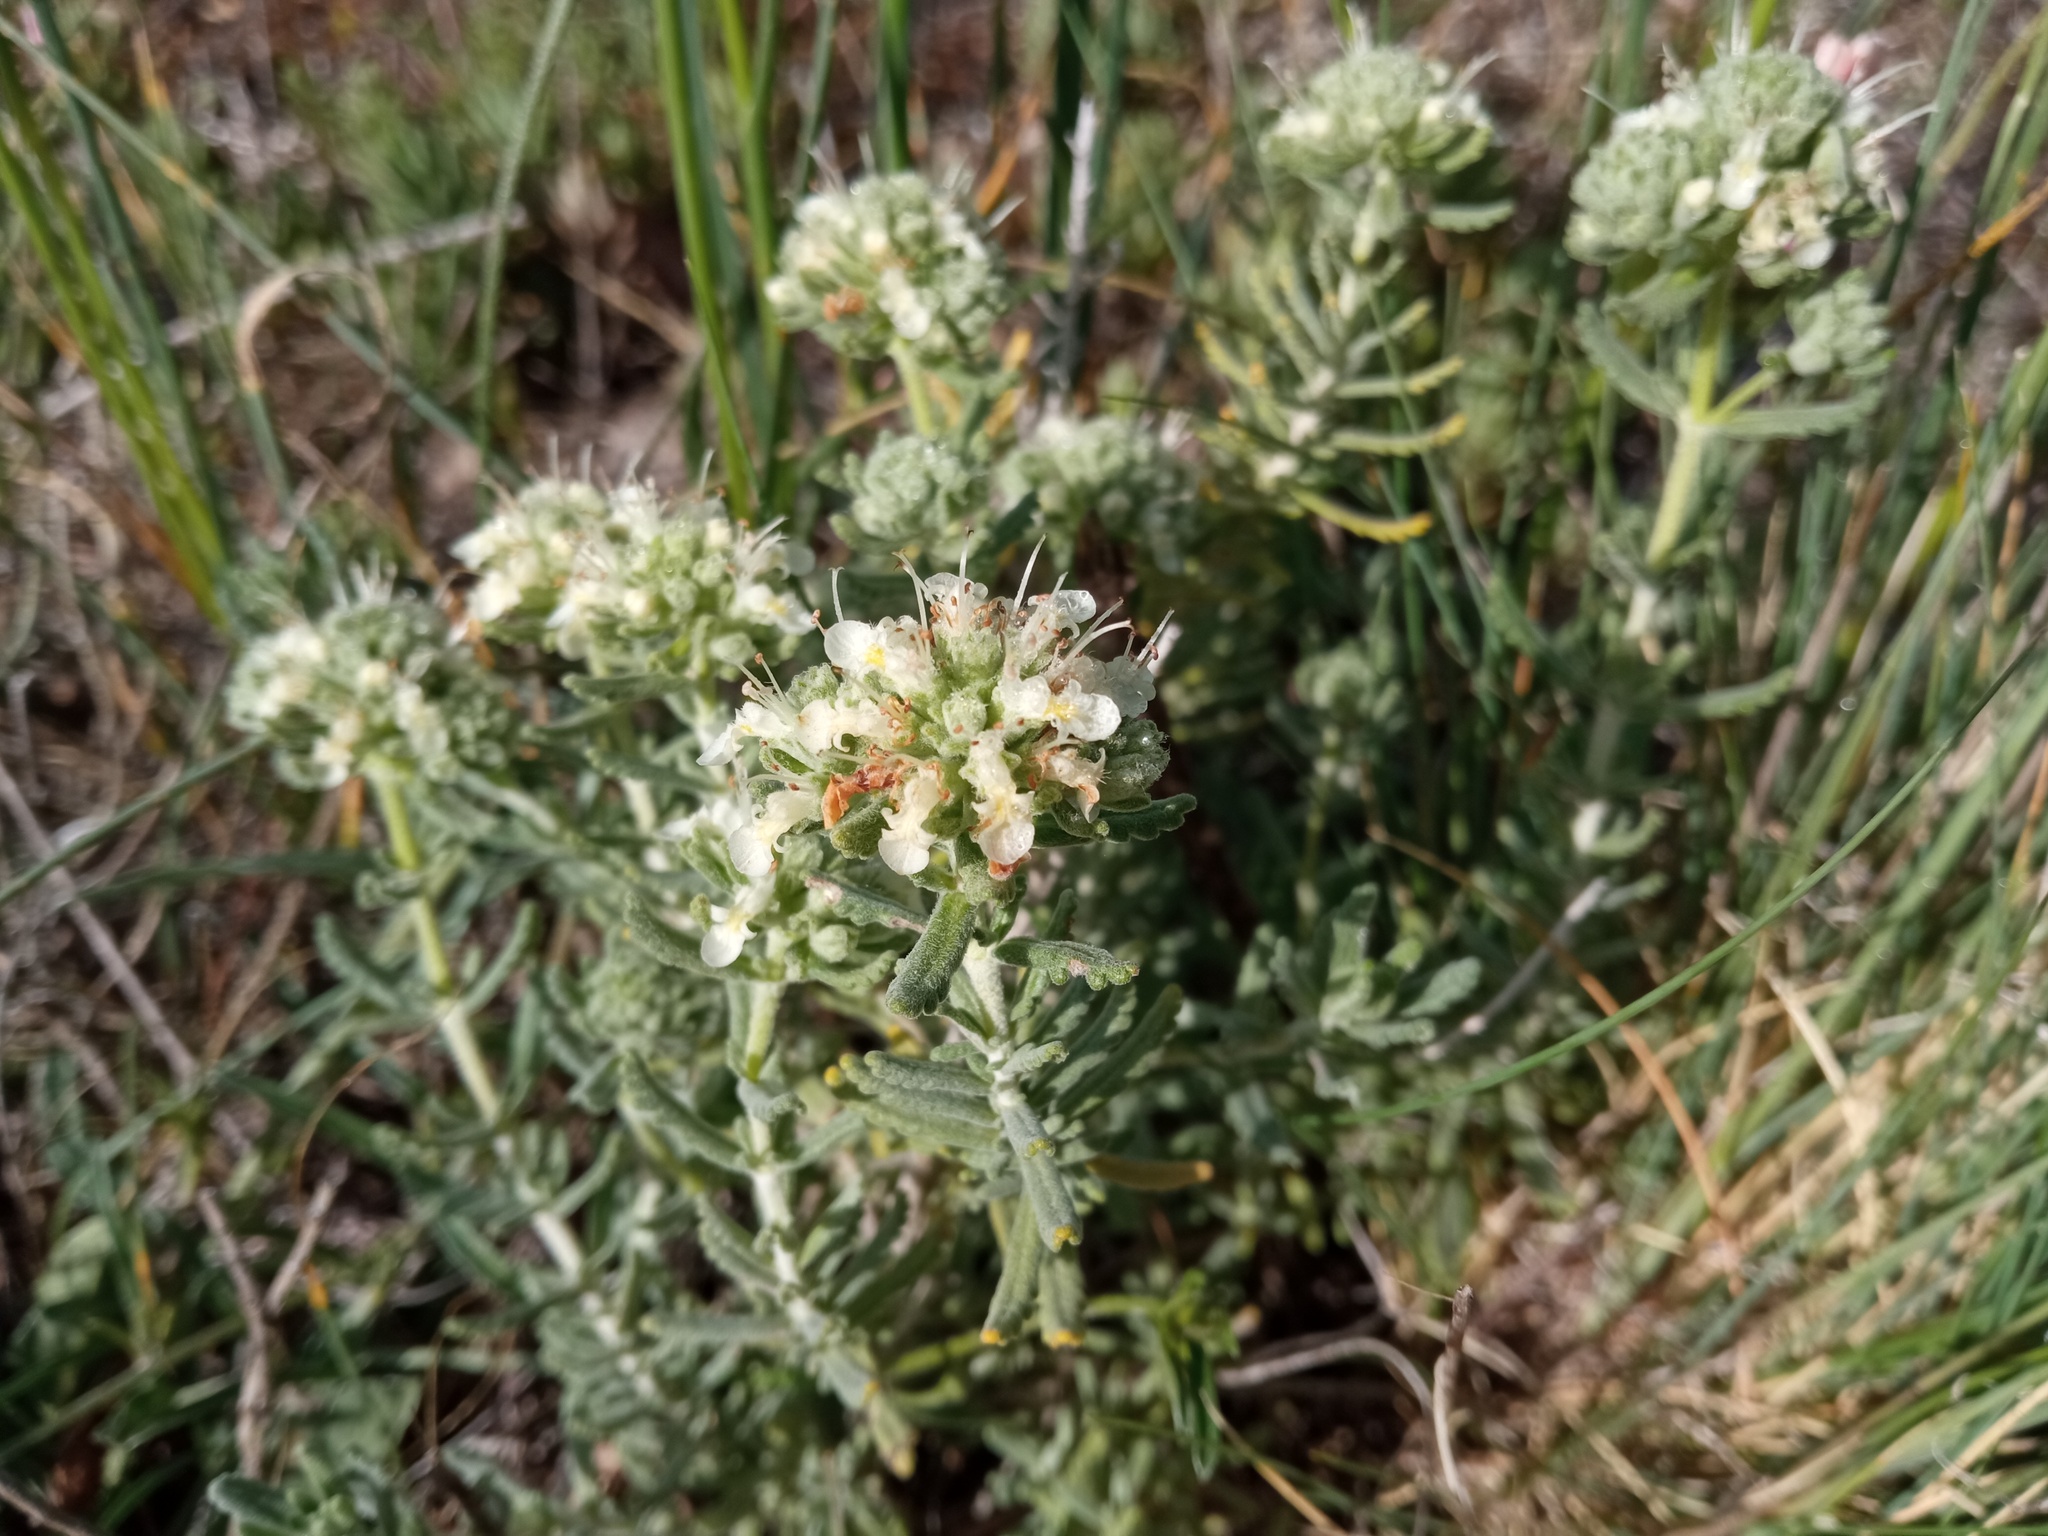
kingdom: Plantae
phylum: Tracheophyta
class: Magnoliopsida
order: Lamiales
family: Lamiaceae
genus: Teucrium
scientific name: Teucrium polium
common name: Poley
